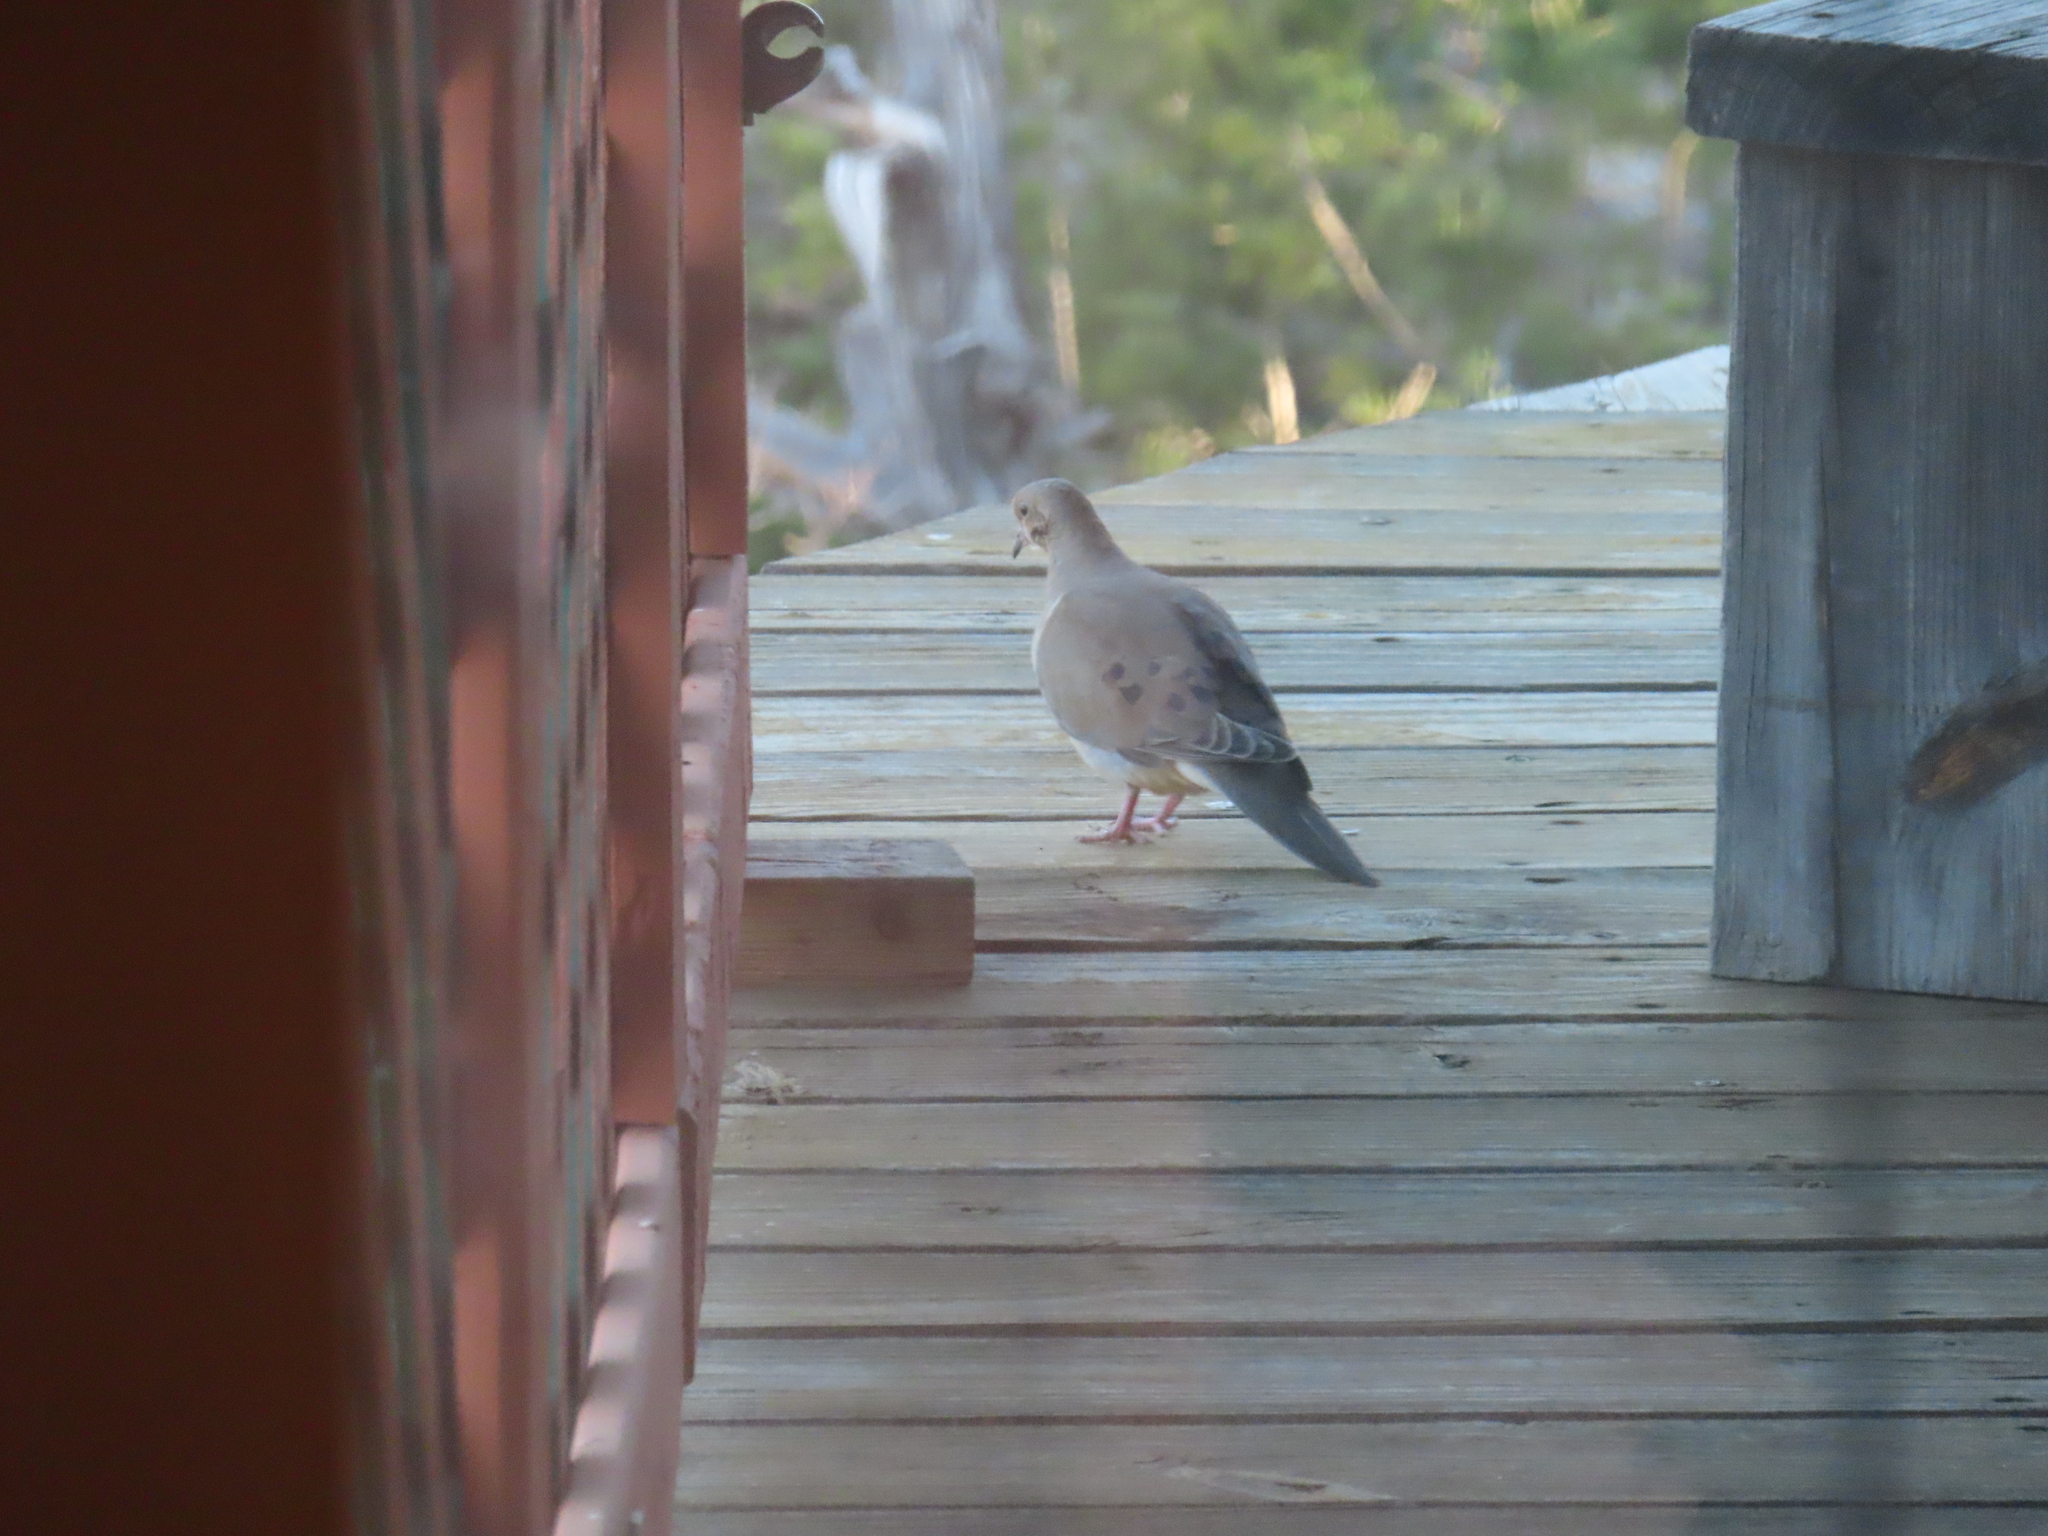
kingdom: Animalia
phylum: Chordata
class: Aves
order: Columbiformes
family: Columbidae
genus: Zenaida
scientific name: Zenaida macroura
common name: Mourning dove
